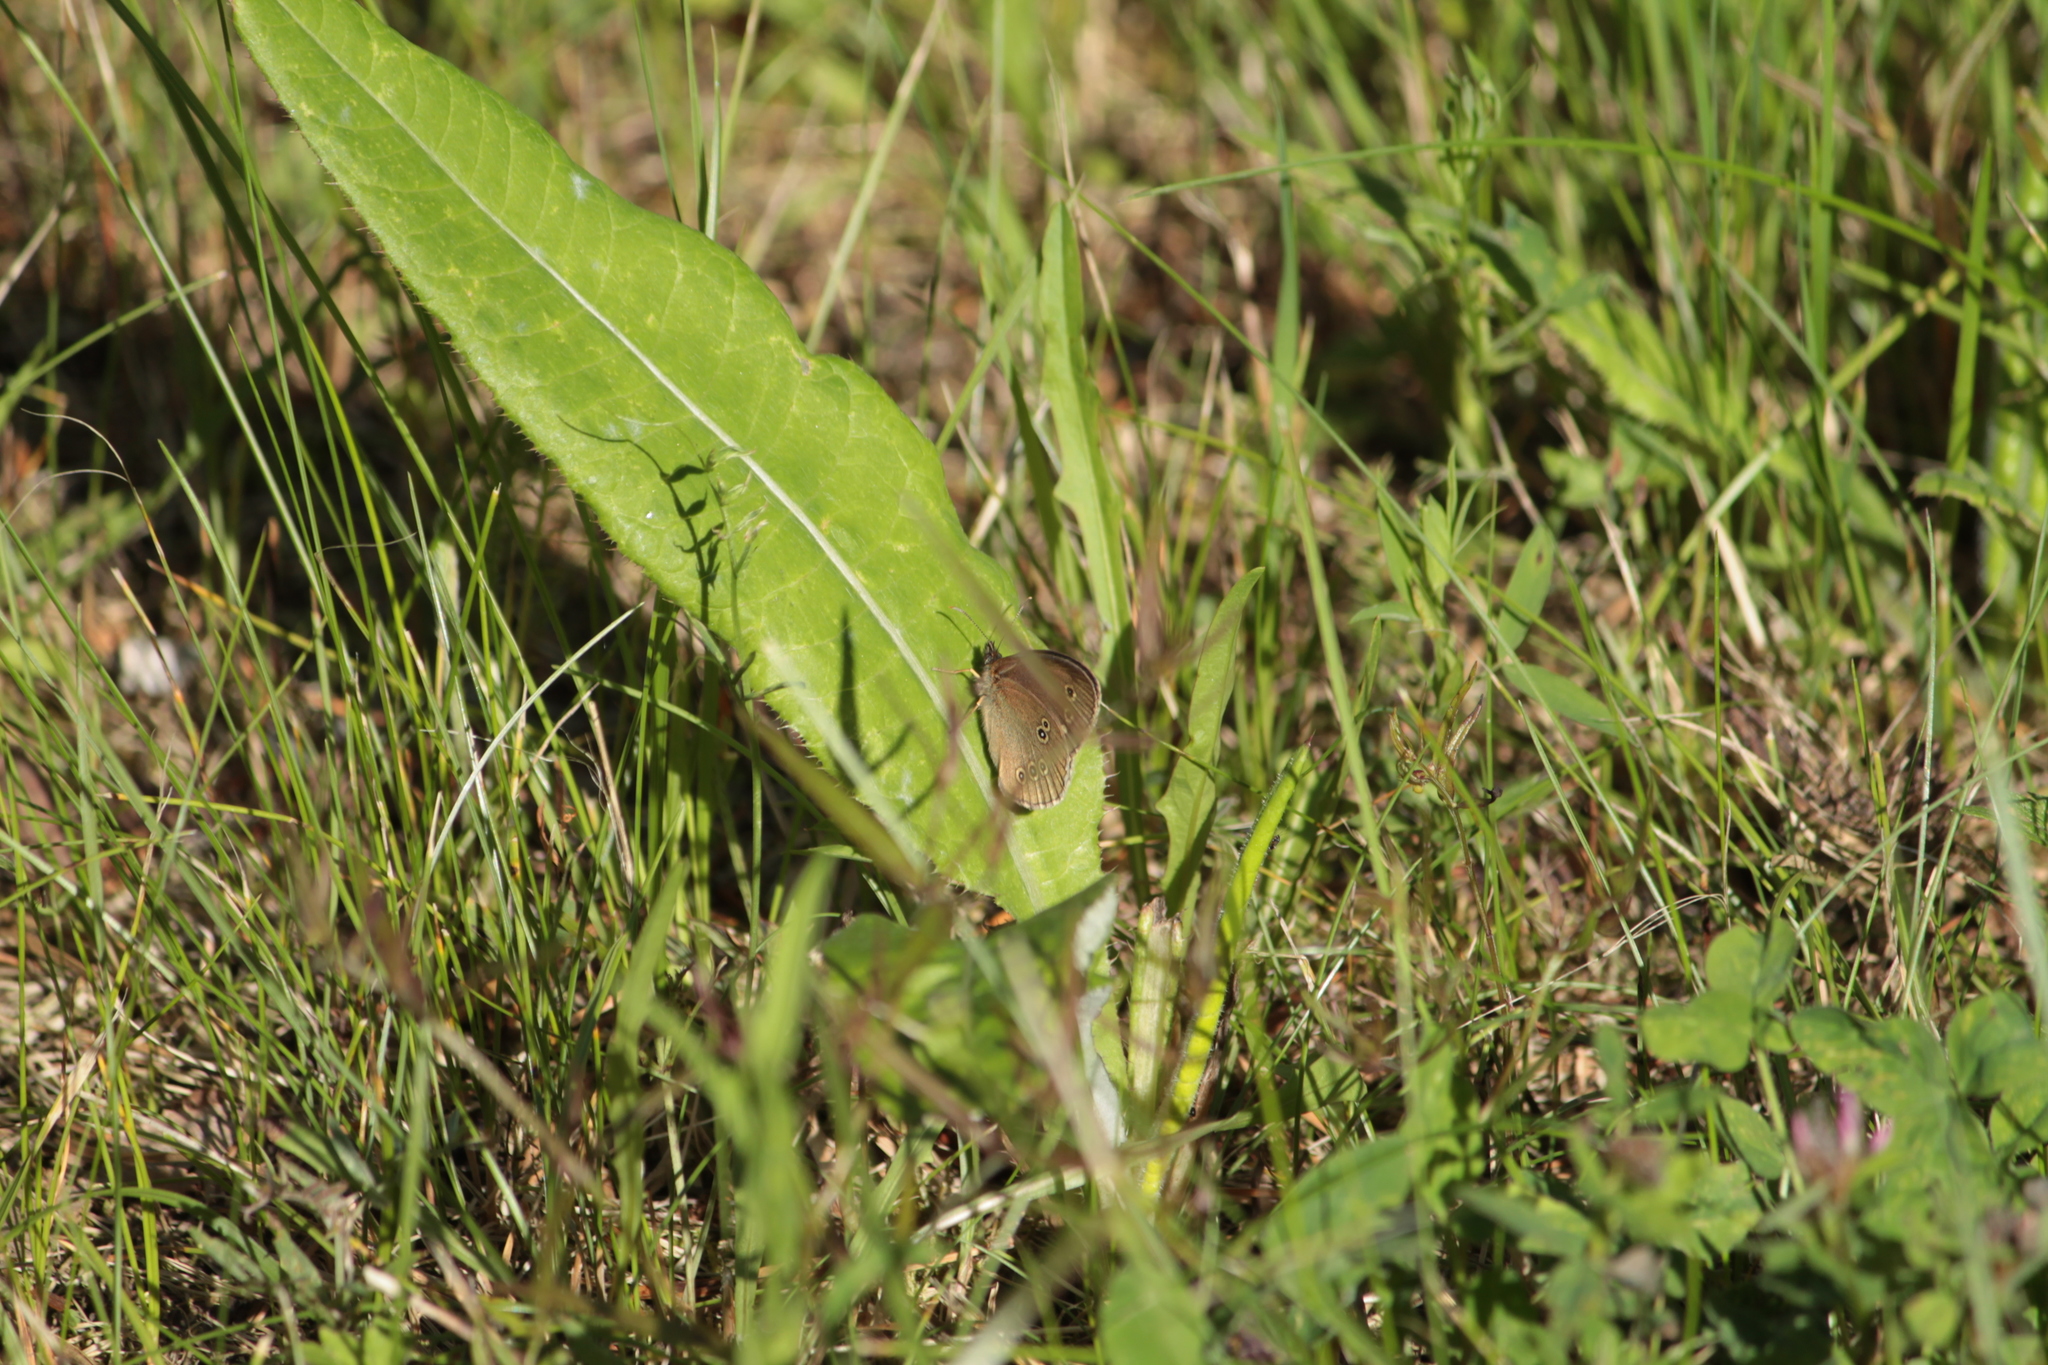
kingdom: Animalia
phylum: Arthropoda
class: Insecta
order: Lepidoptera
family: Nymphalidae
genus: Aphantopus
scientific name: Aphantopus hyperantus
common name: Ringlet
